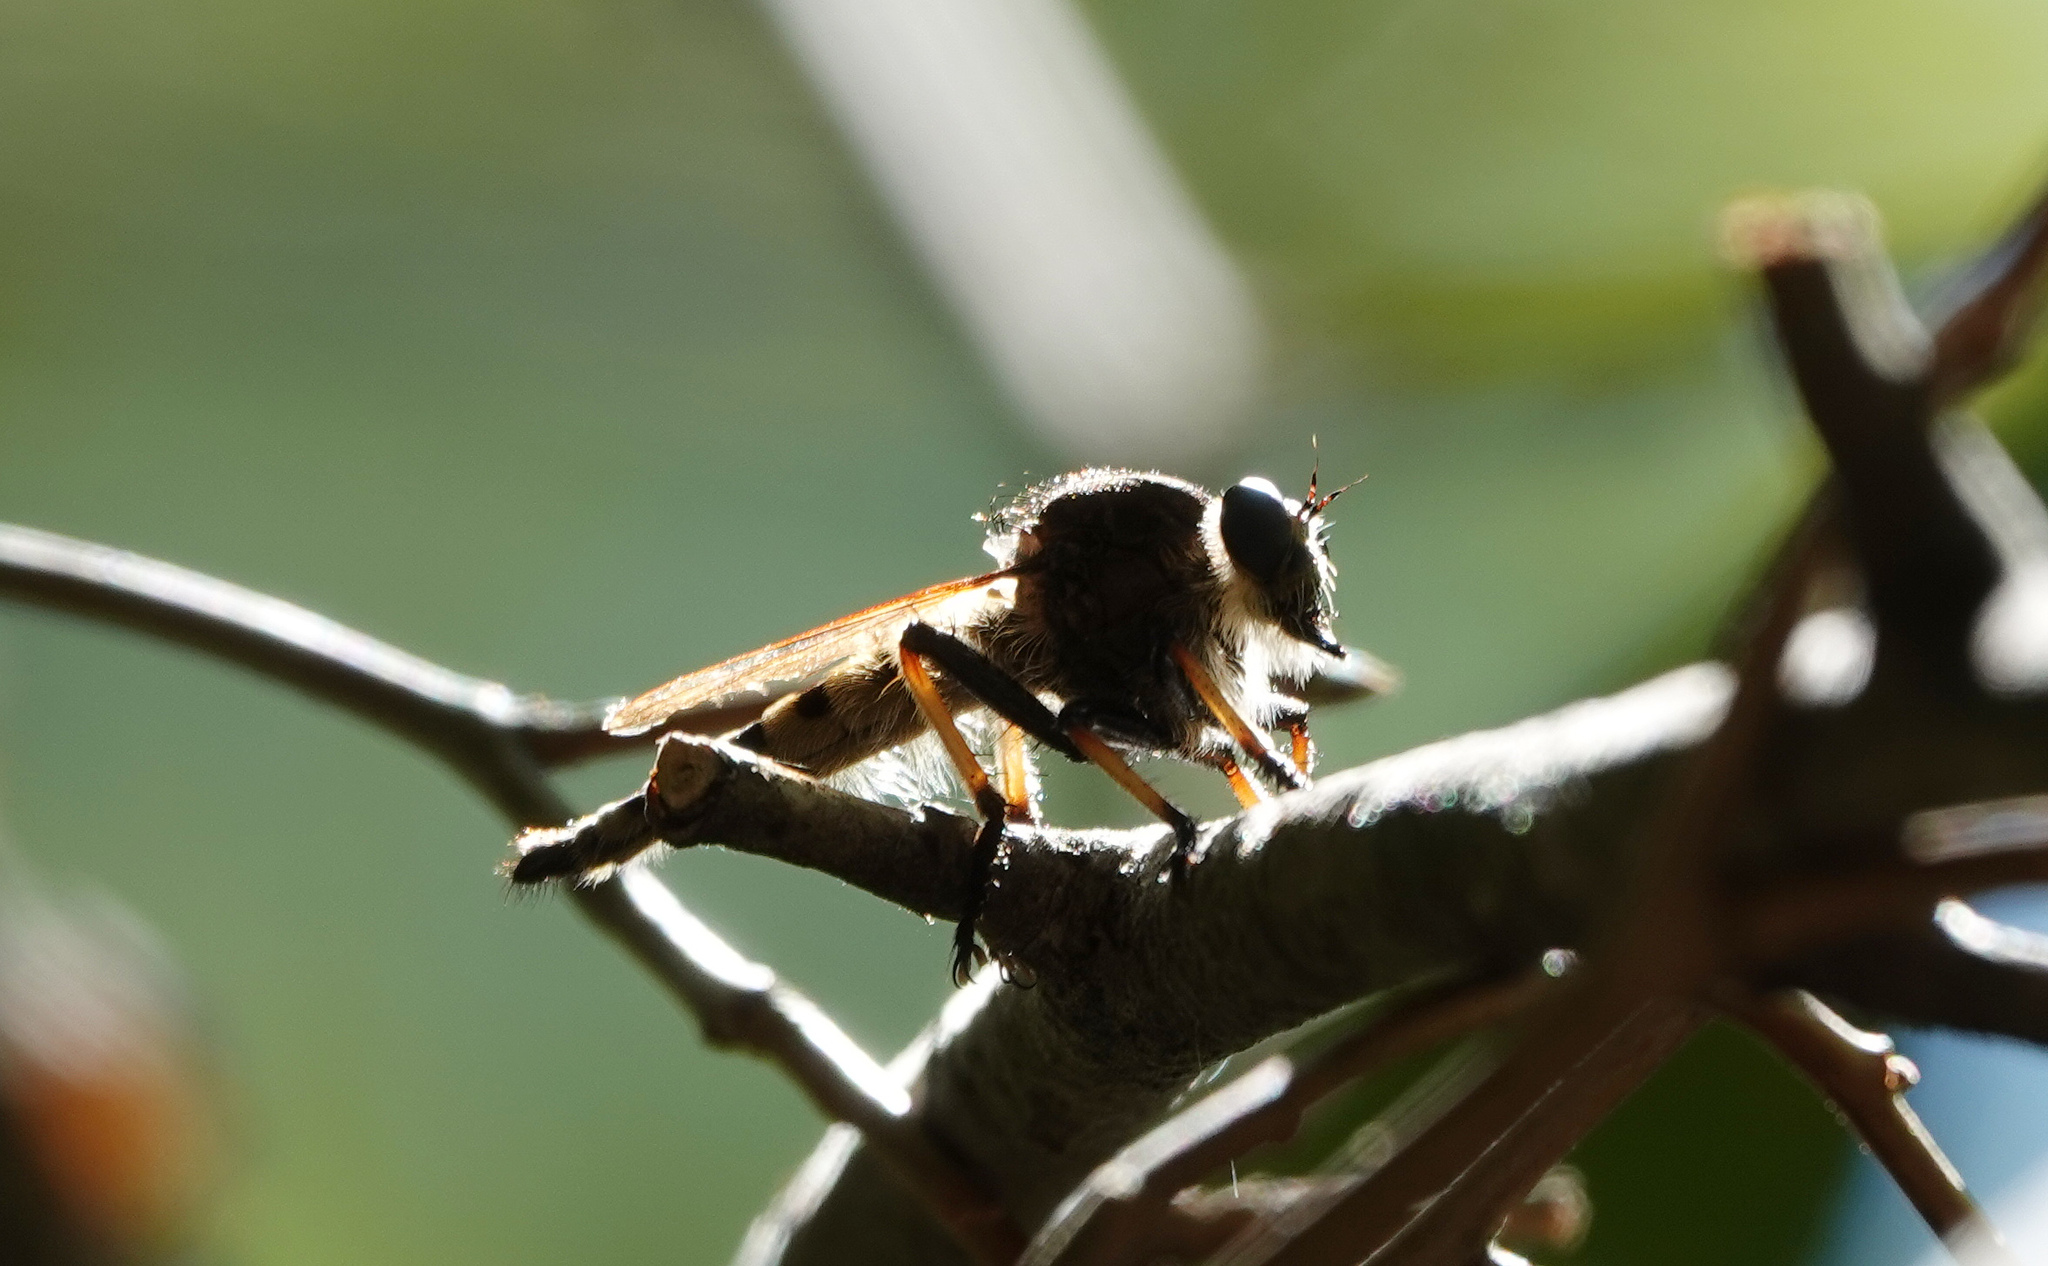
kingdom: Animalia
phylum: Arthropoda
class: Insecta
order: Diptera
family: Asilidae
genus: Promachus
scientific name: Promachus rufipes
